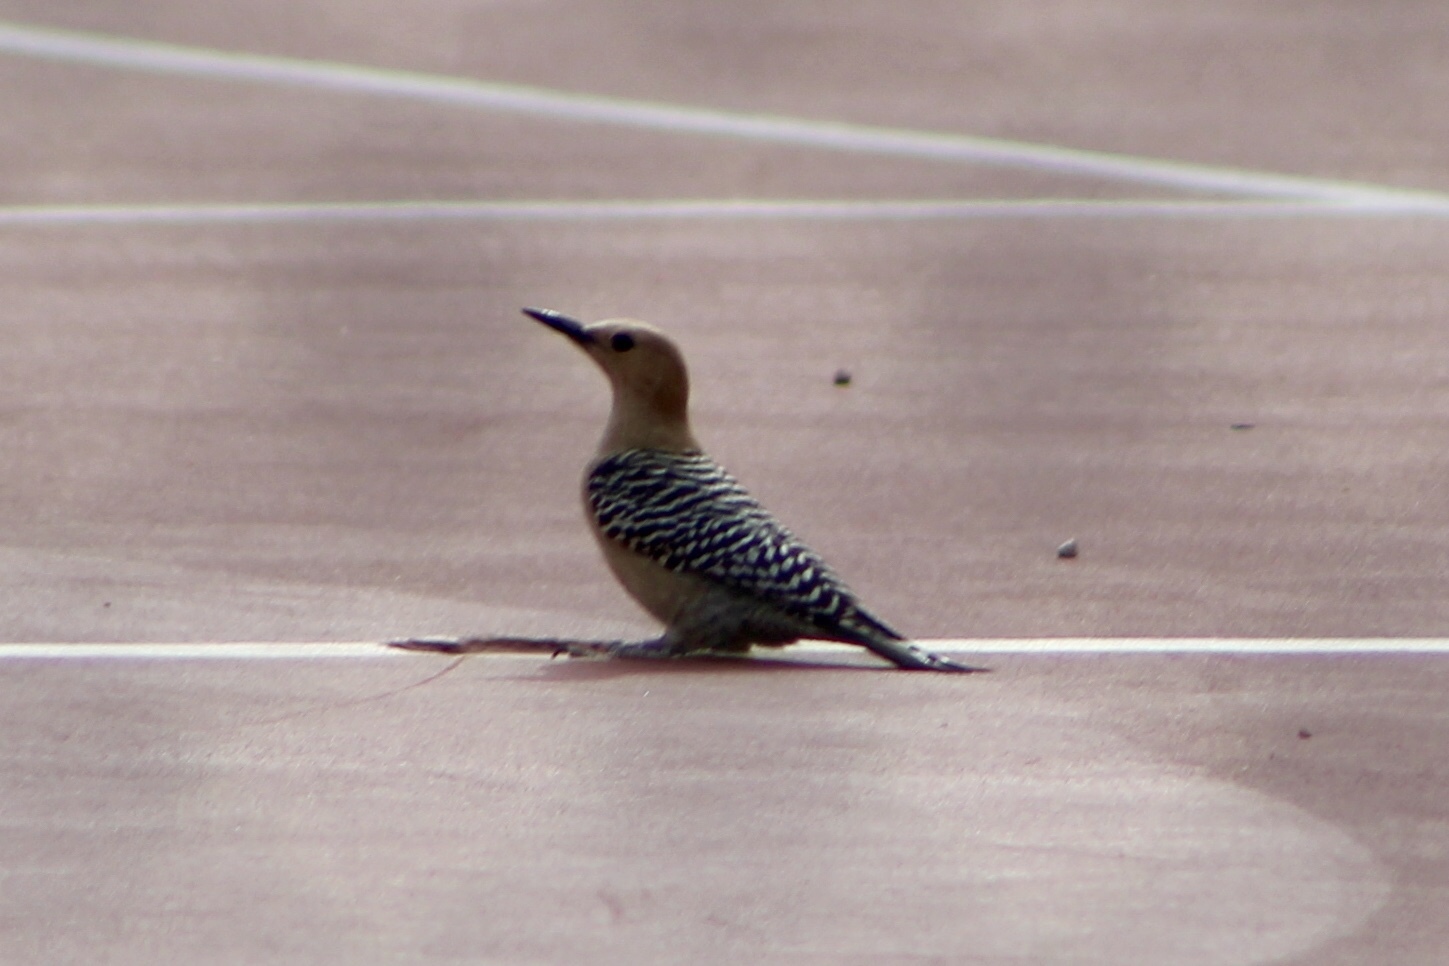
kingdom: Animalia
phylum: Chordata
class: Aves
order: Piciformes
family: Picidae
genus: Melanerpes
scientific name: Melanerpes uropygialis
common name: Gila woodpecker
